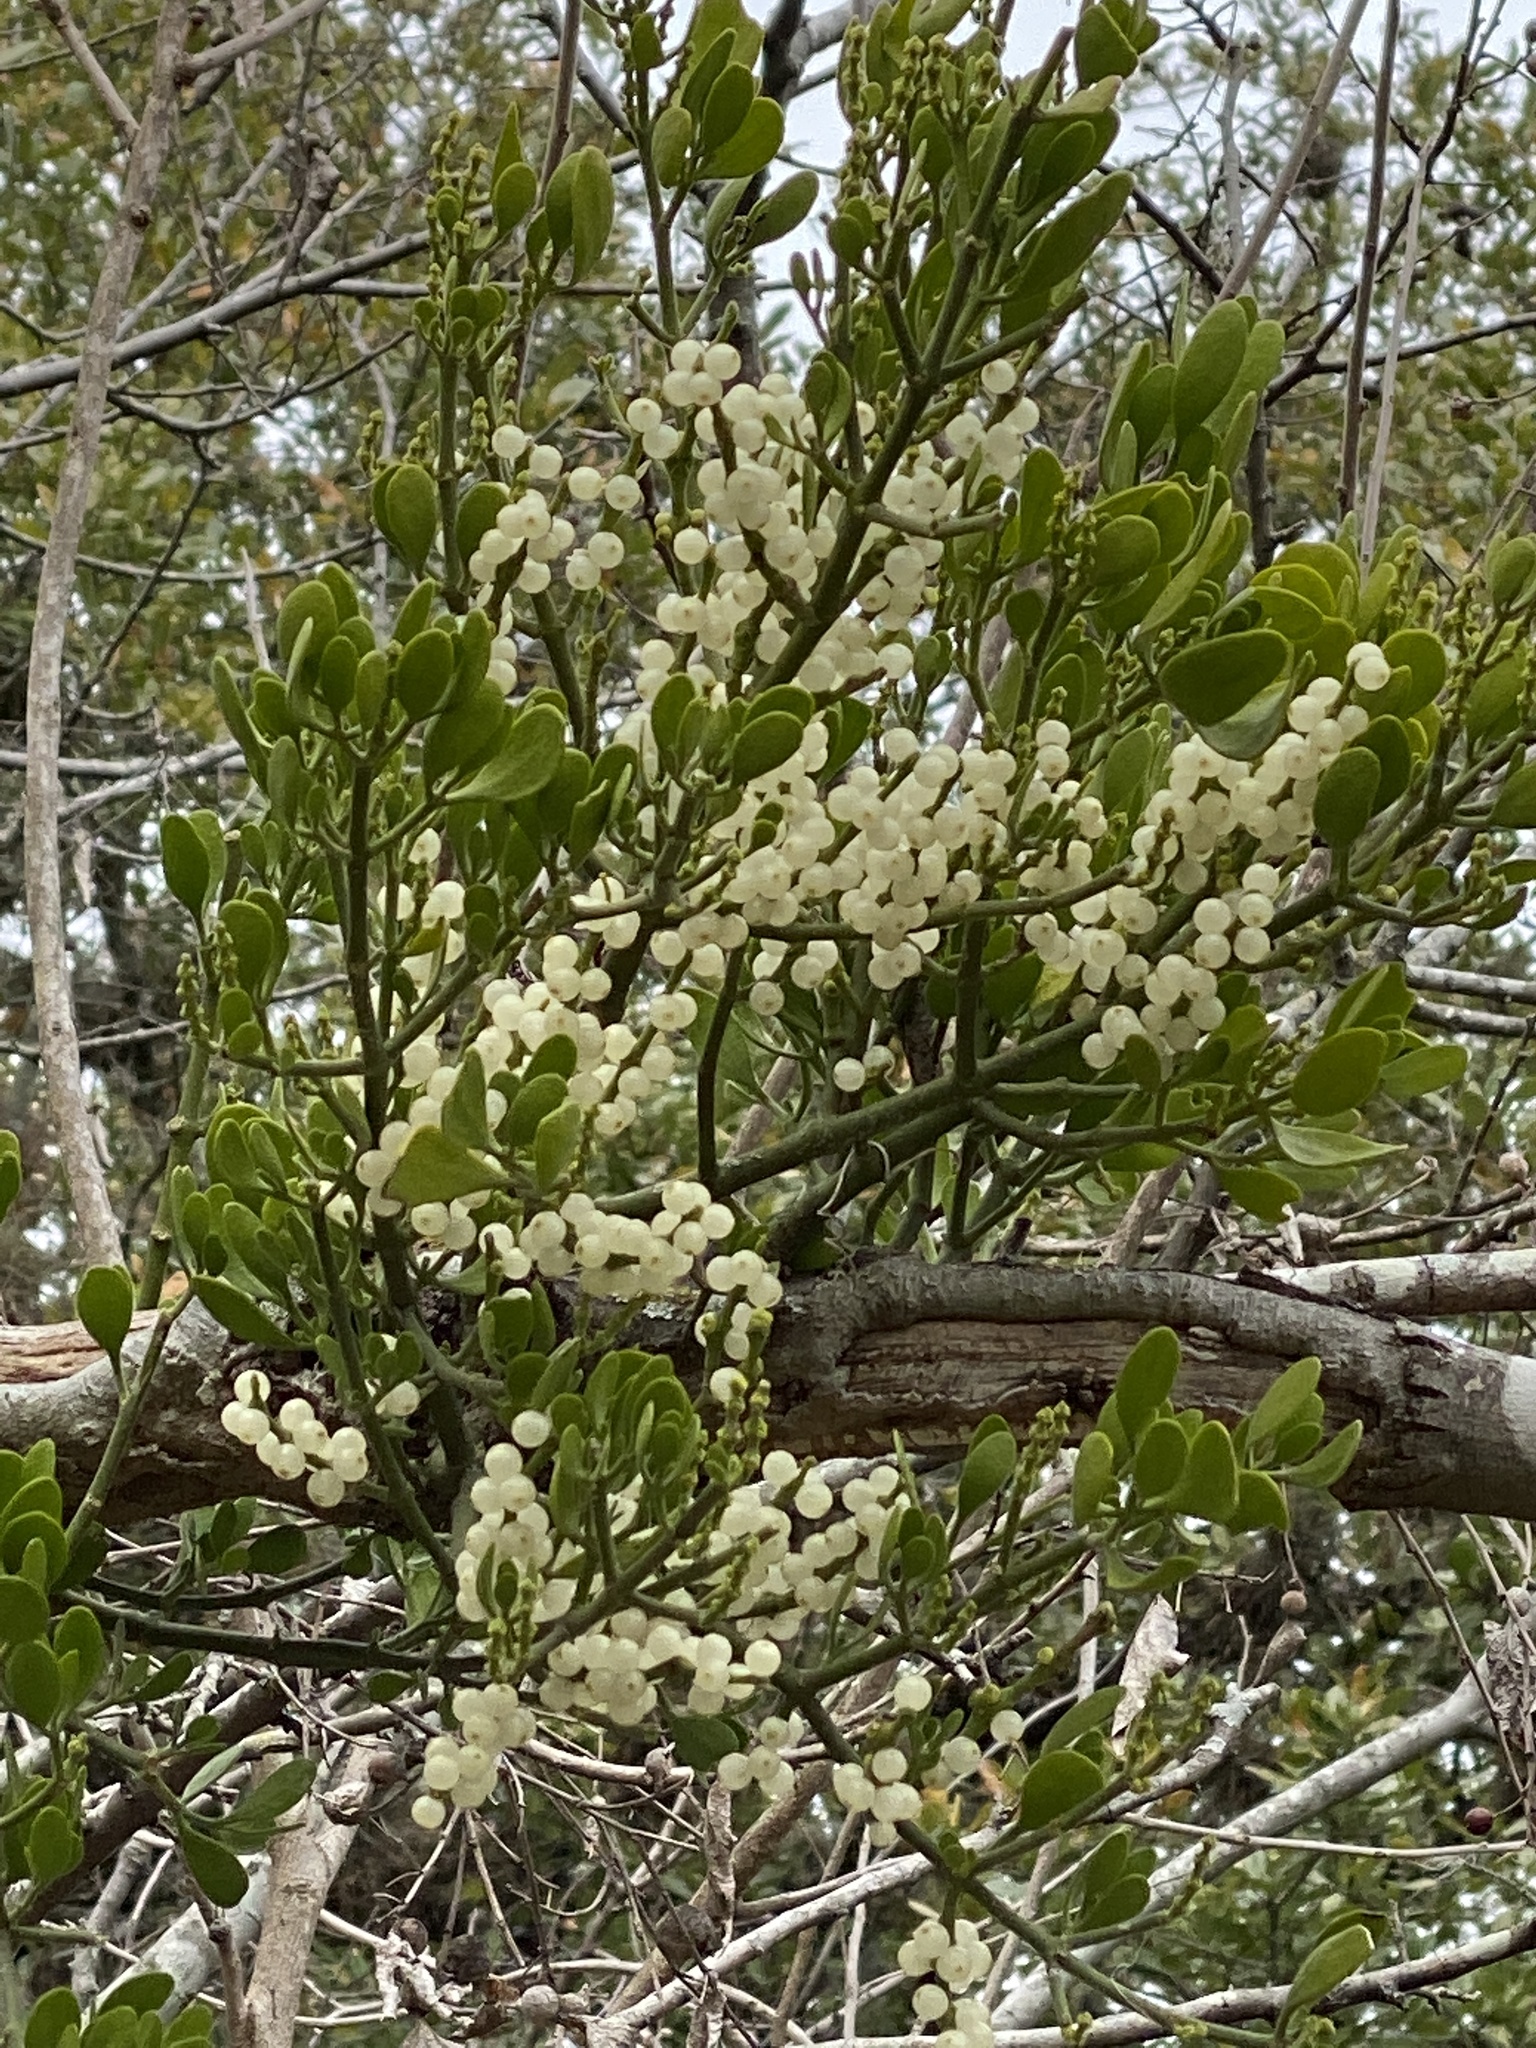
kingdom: Plantae
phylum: Tracheophyta
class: Magnoliopsida
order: Santalales
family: Viscaceae
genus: Phoradendron
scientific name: Phoradendron leucarpum
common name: Pacific mistletoe
